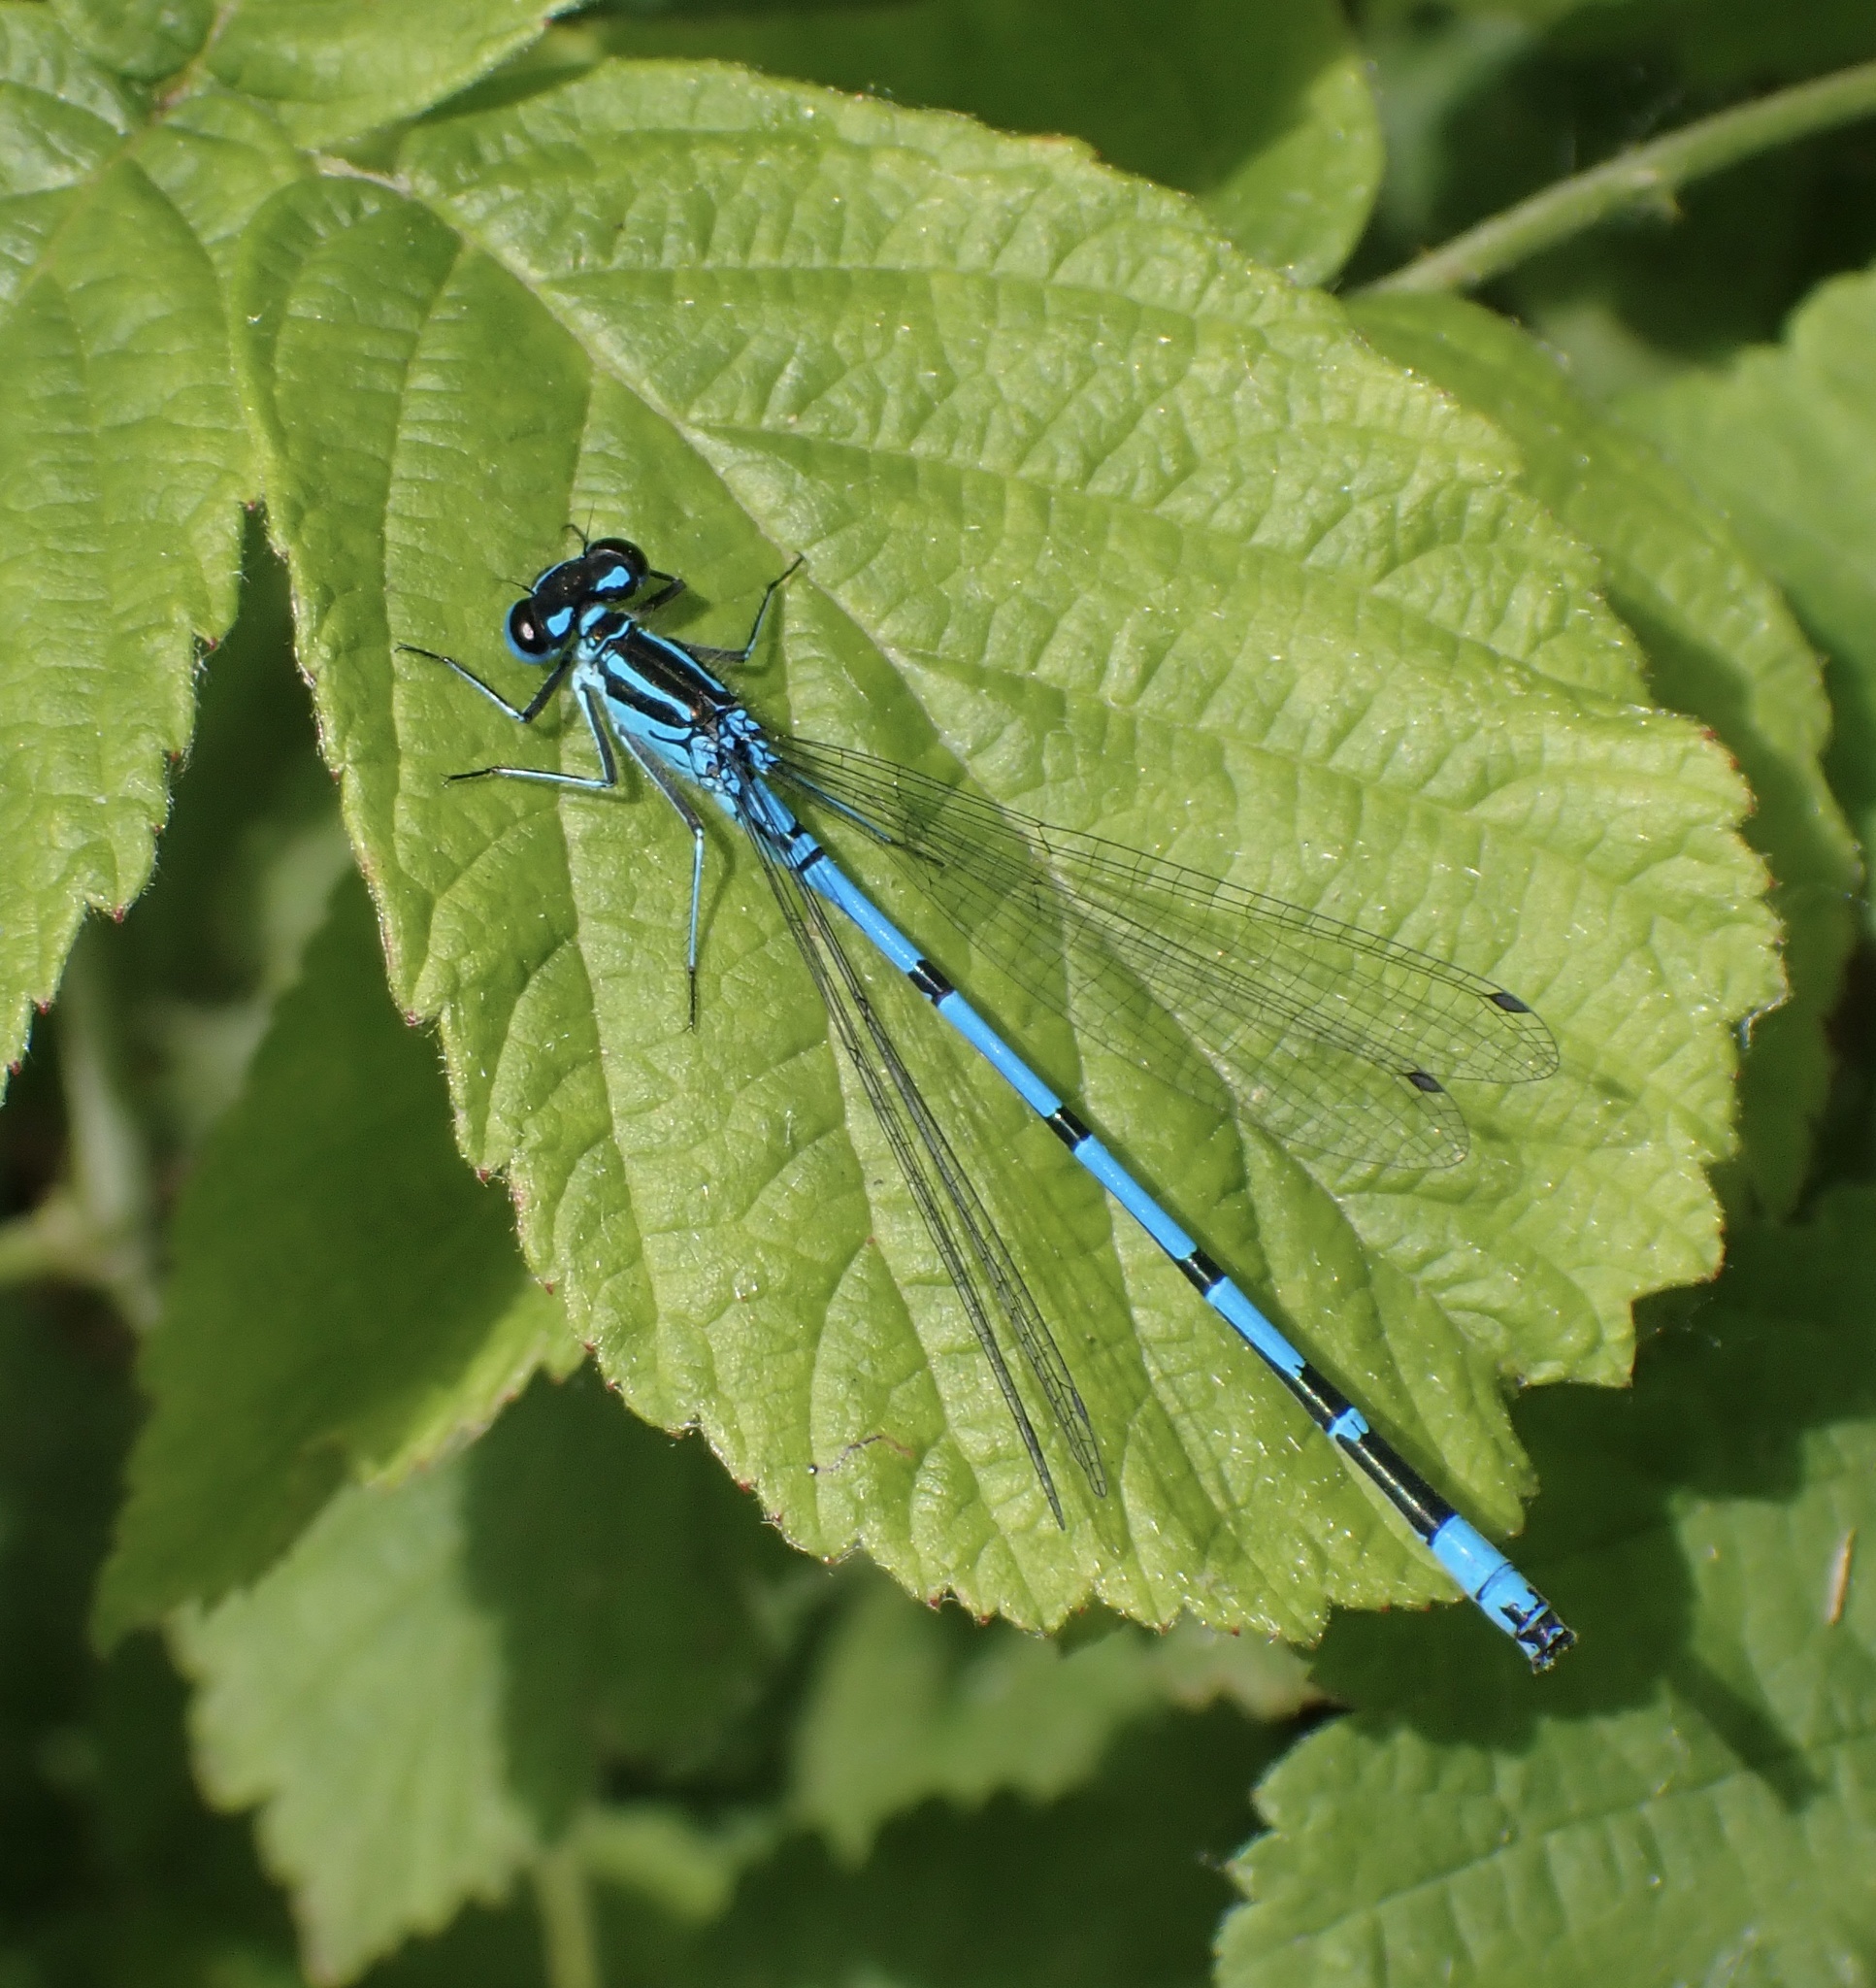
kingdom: Animalia
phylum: Arthropoda
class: Insecta
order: Odonata
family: Coenagrionidae
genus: Coenagrion
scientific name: Coenagrion puella
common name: Azure damselfly
